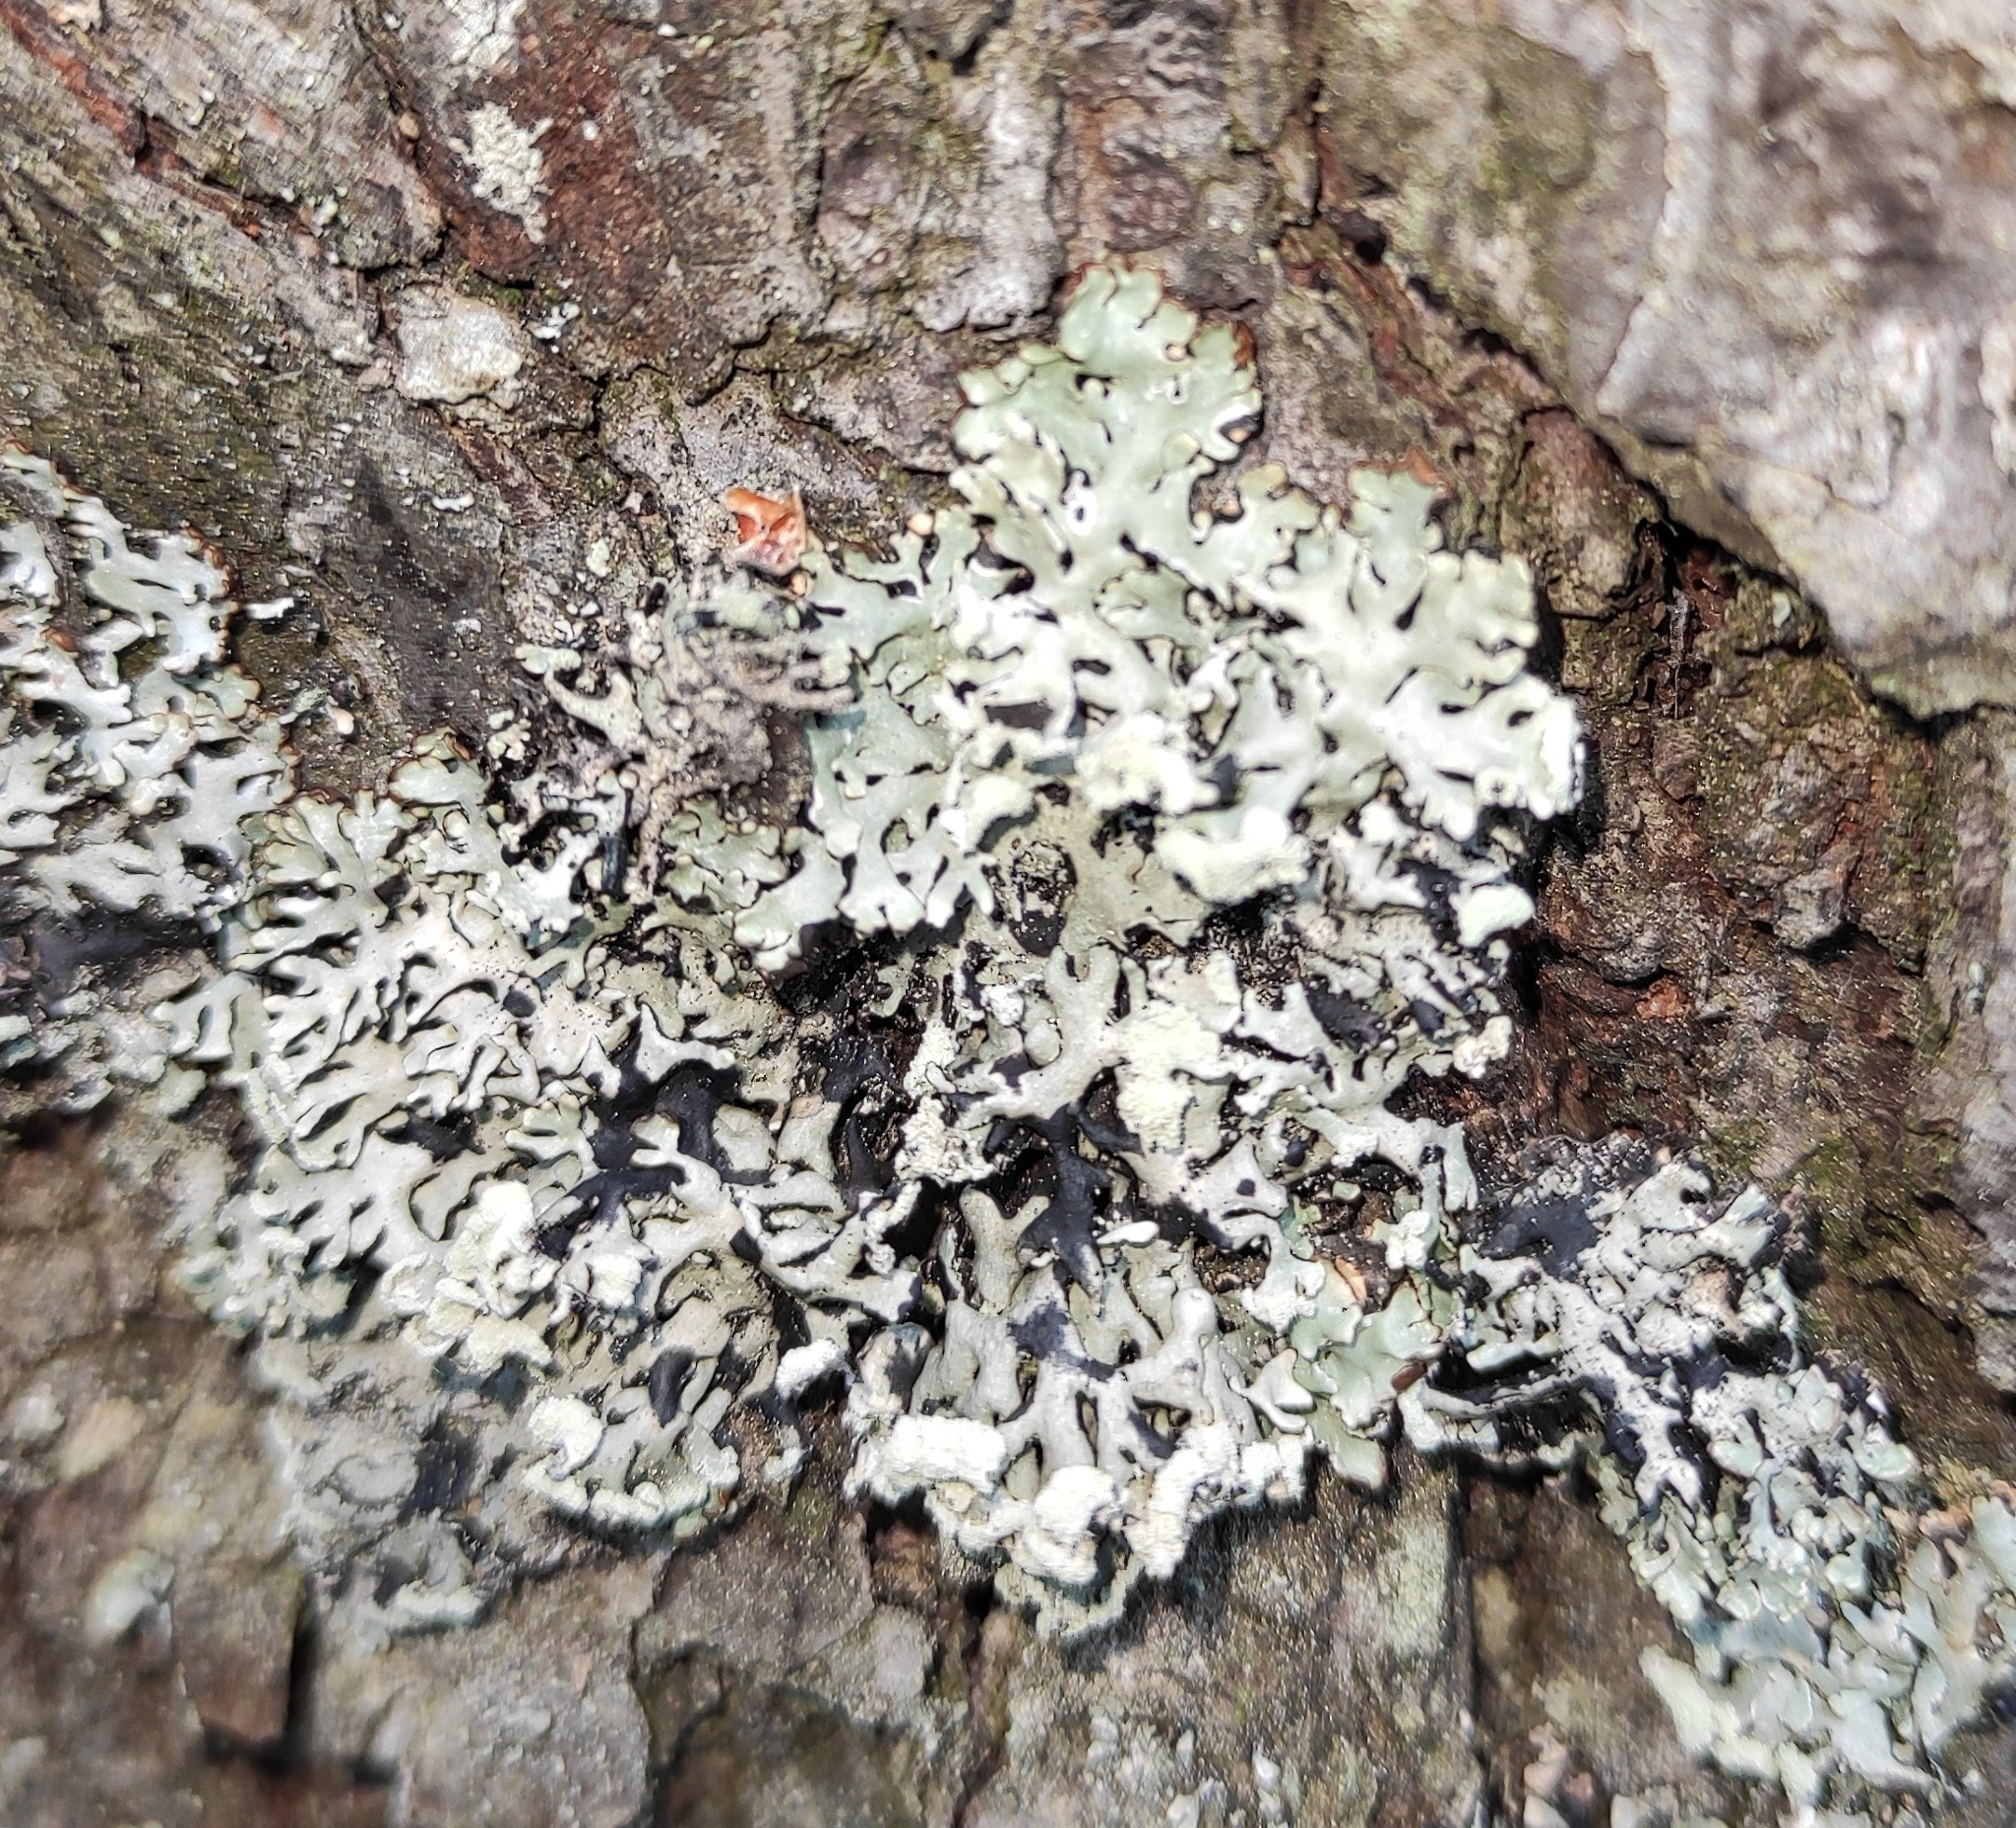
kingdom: Fungi
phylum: Ascomycota
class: Lecanoromycetes
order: Lecanorales
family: Parmeliaceae
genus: Hypogymnia
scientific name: Hypogymnia physodes
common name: Dark crottle
